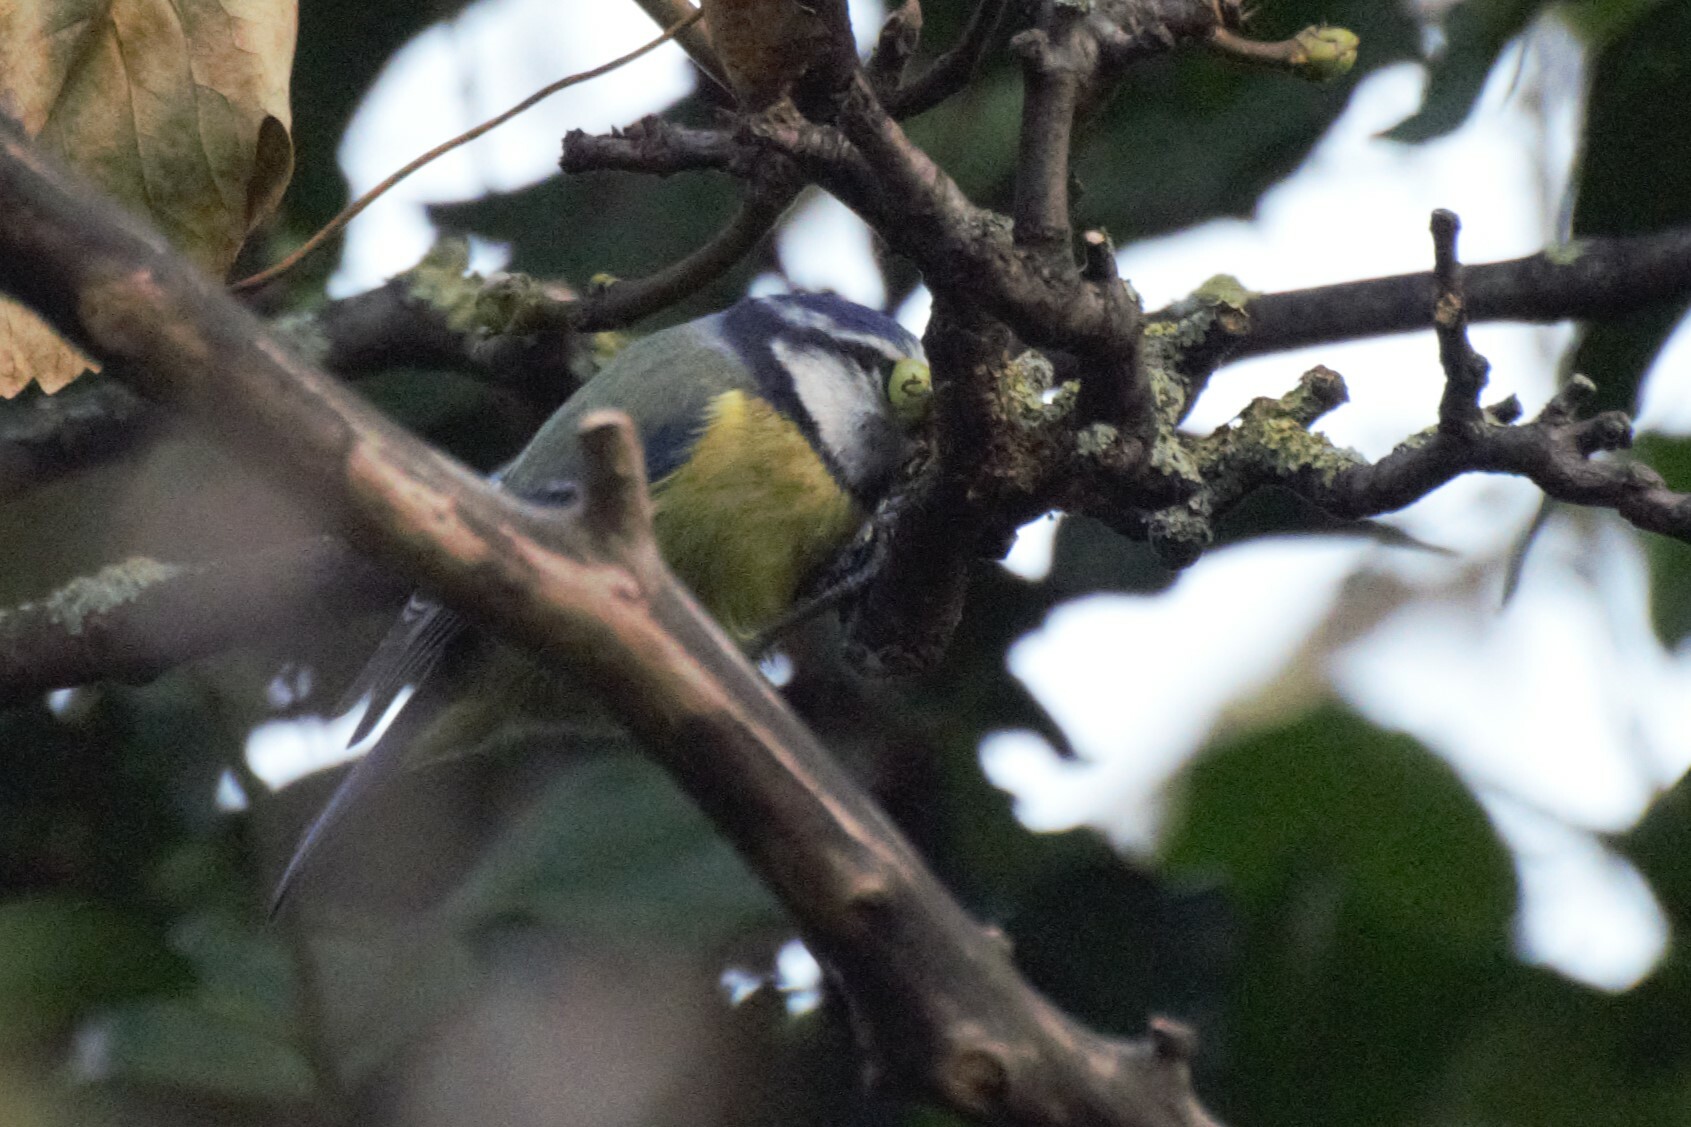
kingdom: Animalia
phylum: Chordata
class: Aves
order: Passeriformes
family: Paridae
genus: Cyanistes
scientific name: Cyanistes caeruleus
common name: Eurasian blue tit
